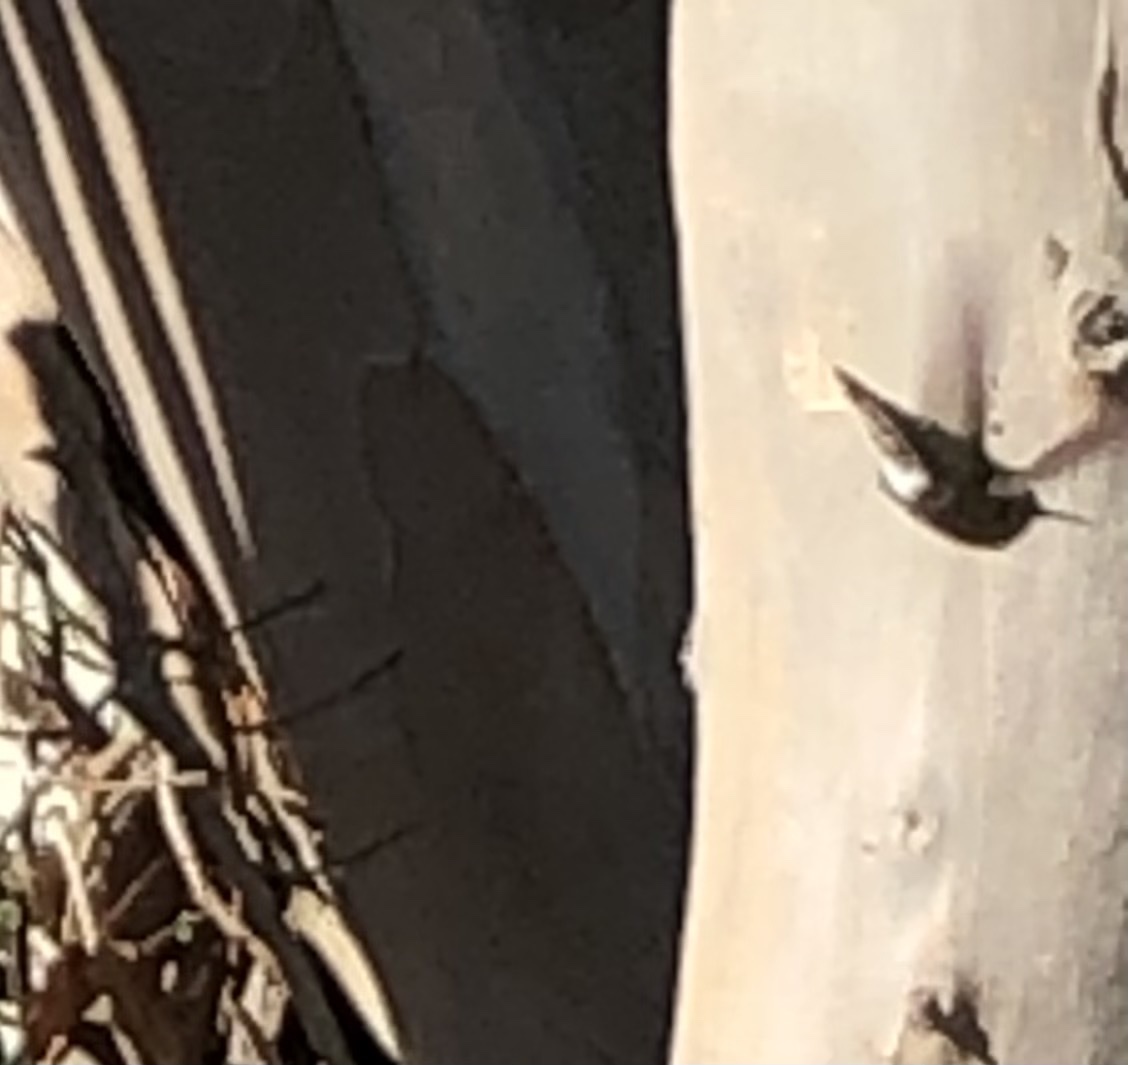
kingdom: Animalia
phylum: Chordata
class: Aves
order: Apodiformes
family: Trochilidae
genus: Calypte
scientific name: Calypte anna
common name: Anna's hummingbird
